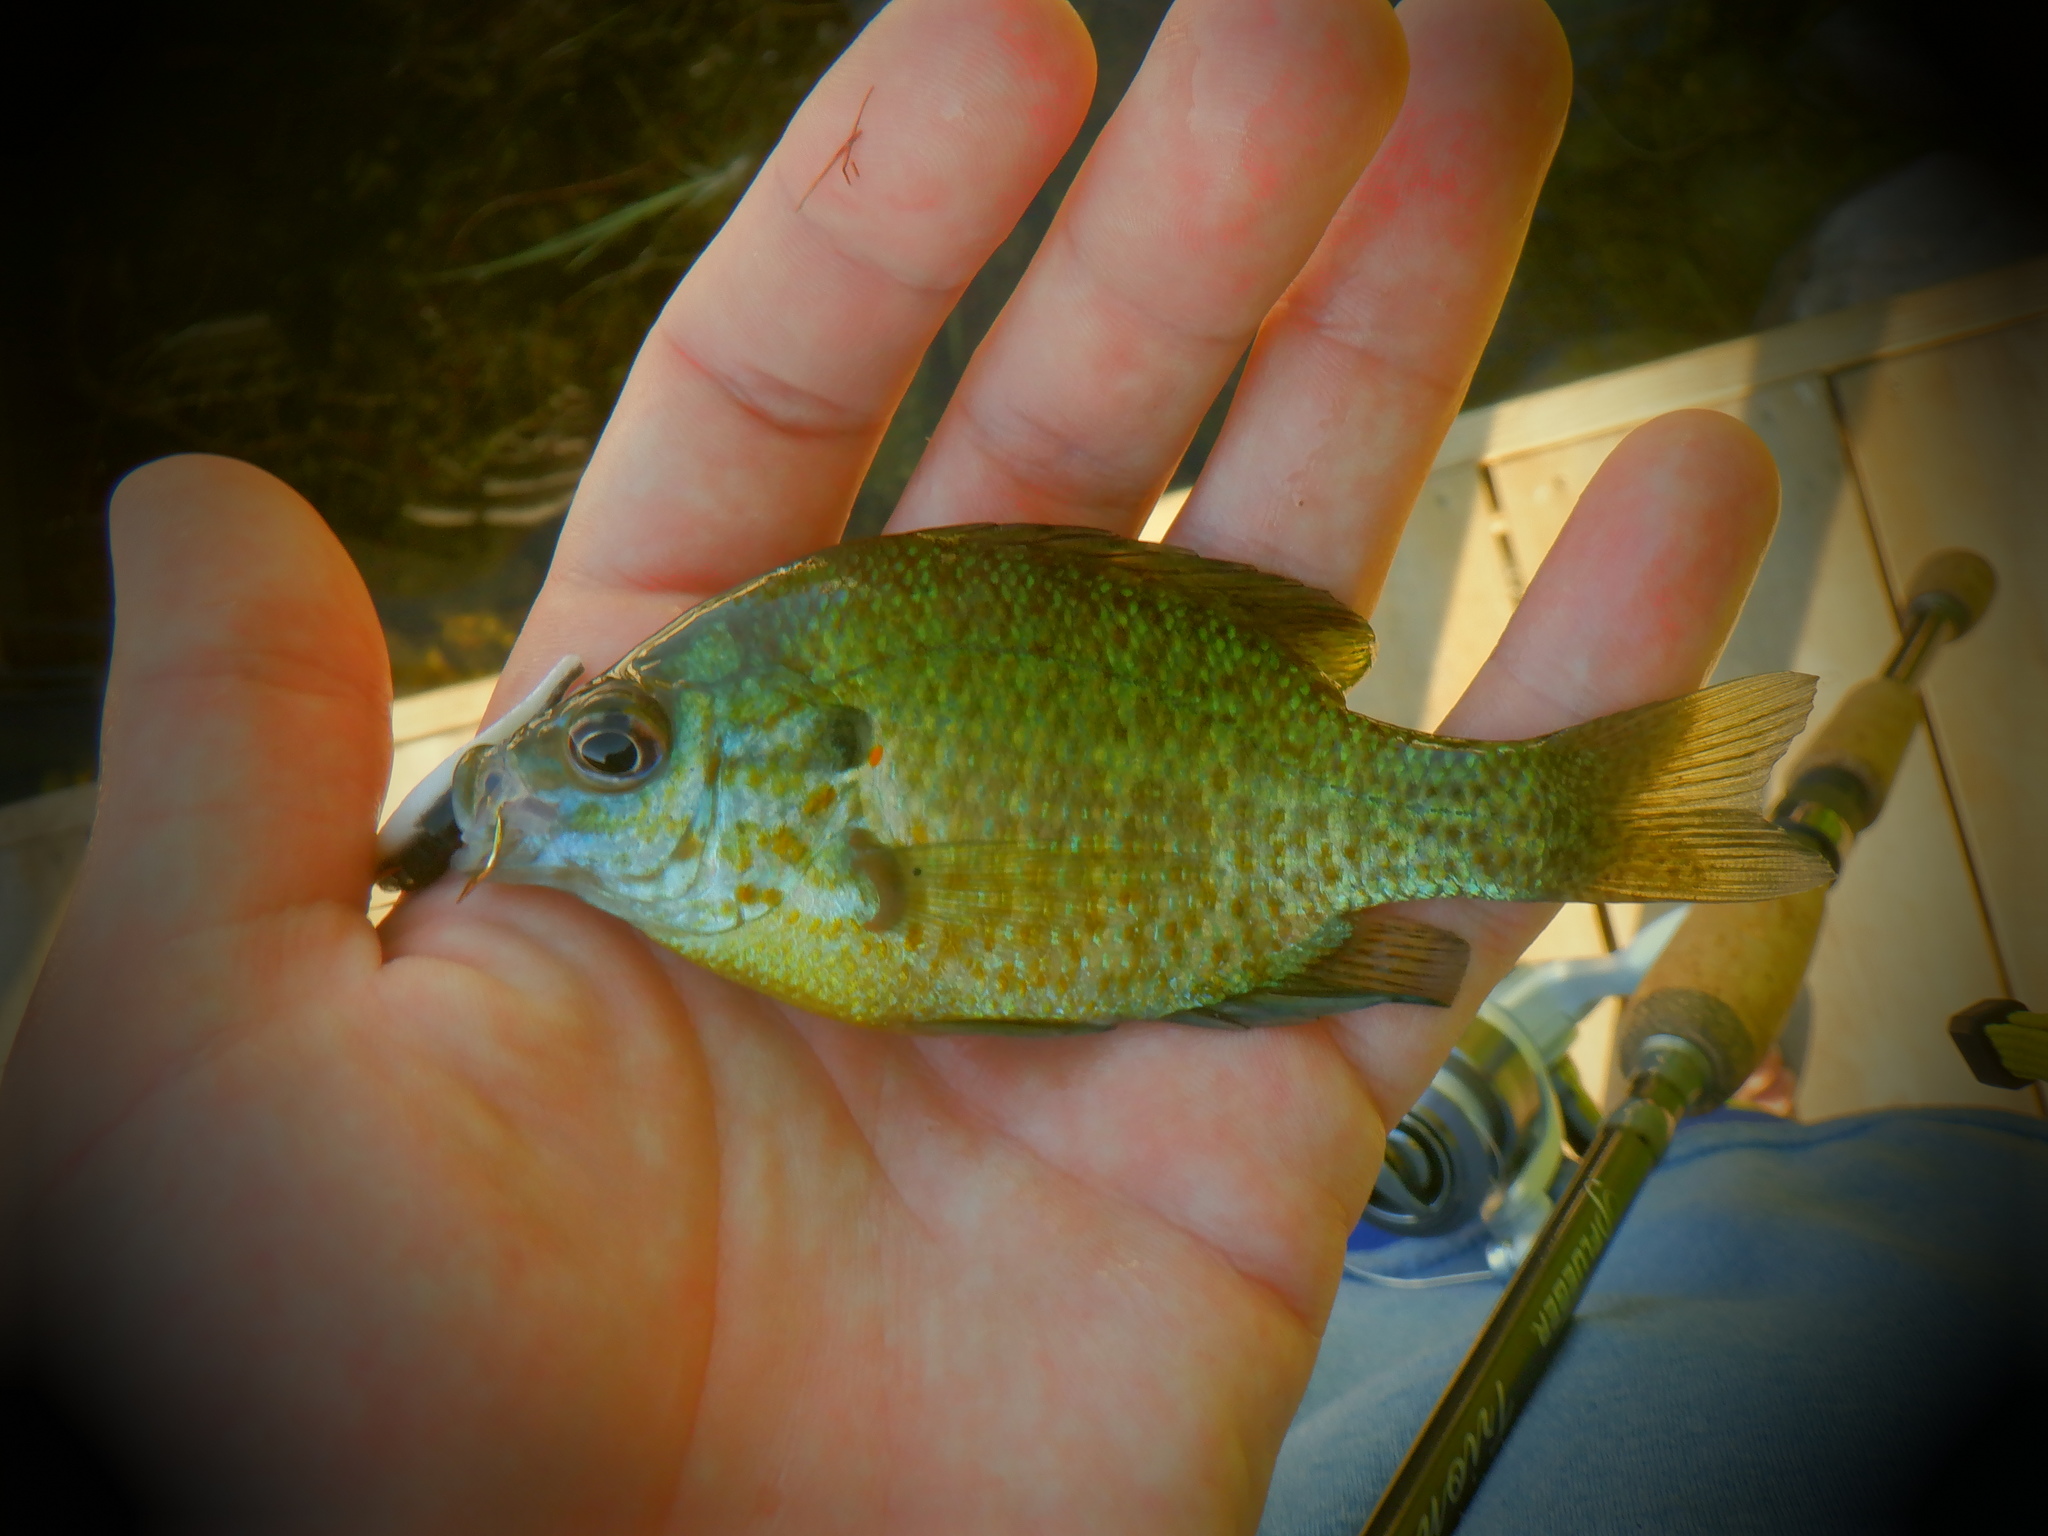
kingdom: Animalia
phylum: Chordata
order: Perciformes
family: Centrarchidae
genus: Lepomis
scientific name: Lepomis
